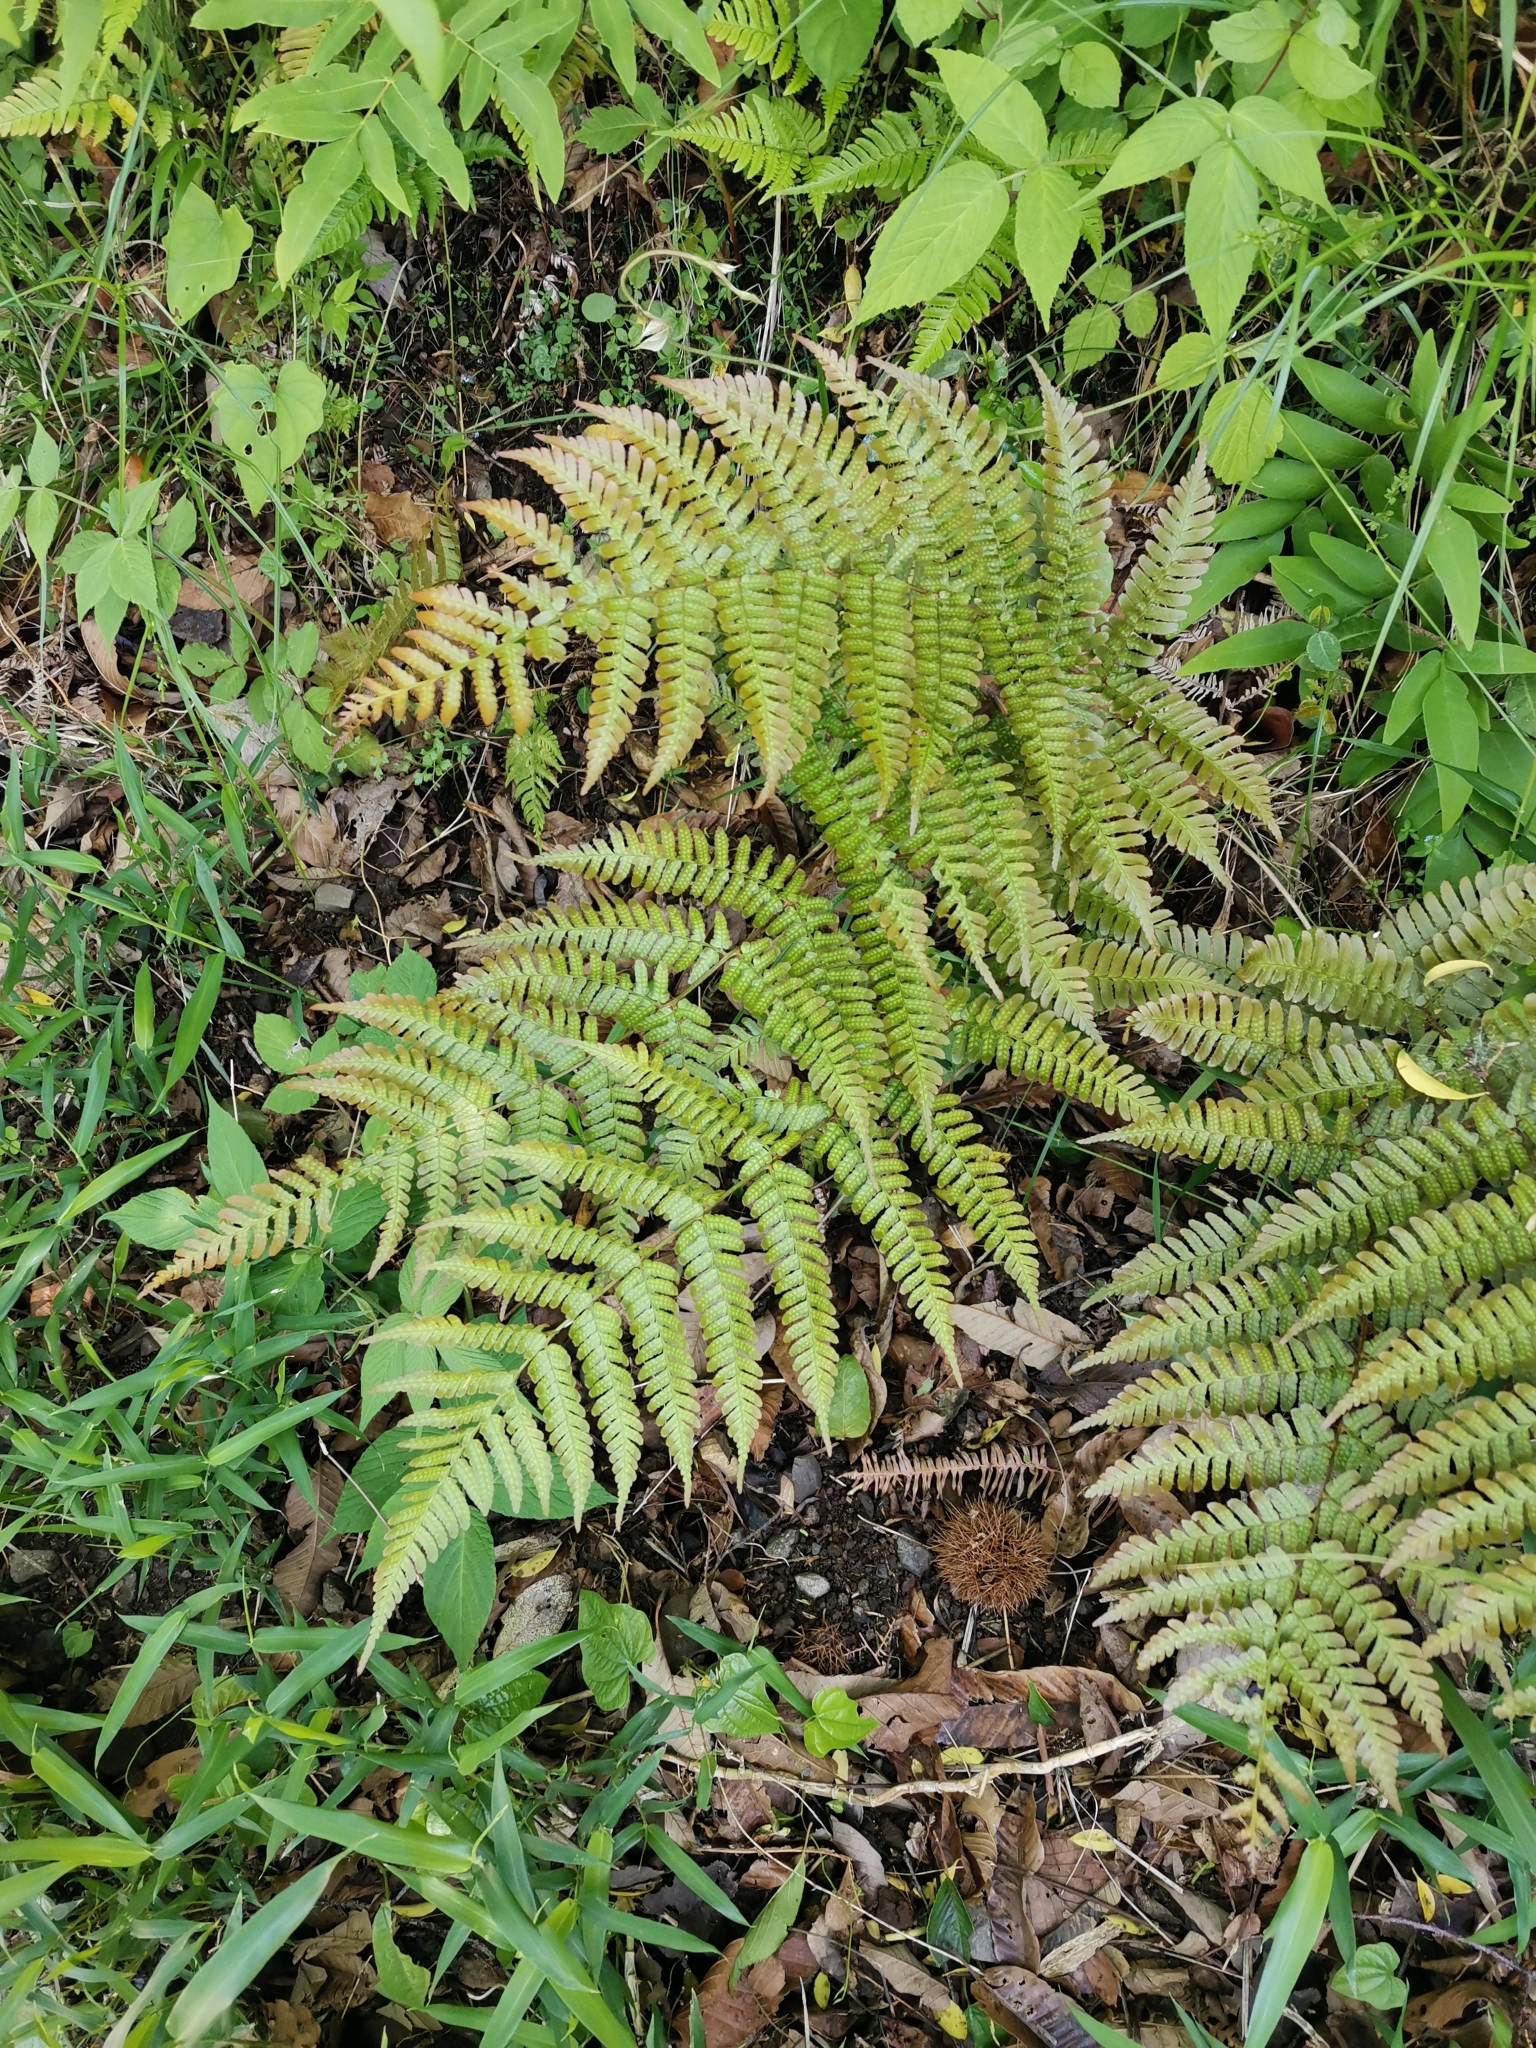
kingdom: Plantae
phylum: Tracheophyta
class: Polypodiopsida
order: Polypodiales
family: Dryopteridaceae
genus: Dryopteris
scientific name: Dryopteris erythrosora
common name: Autumn fern
